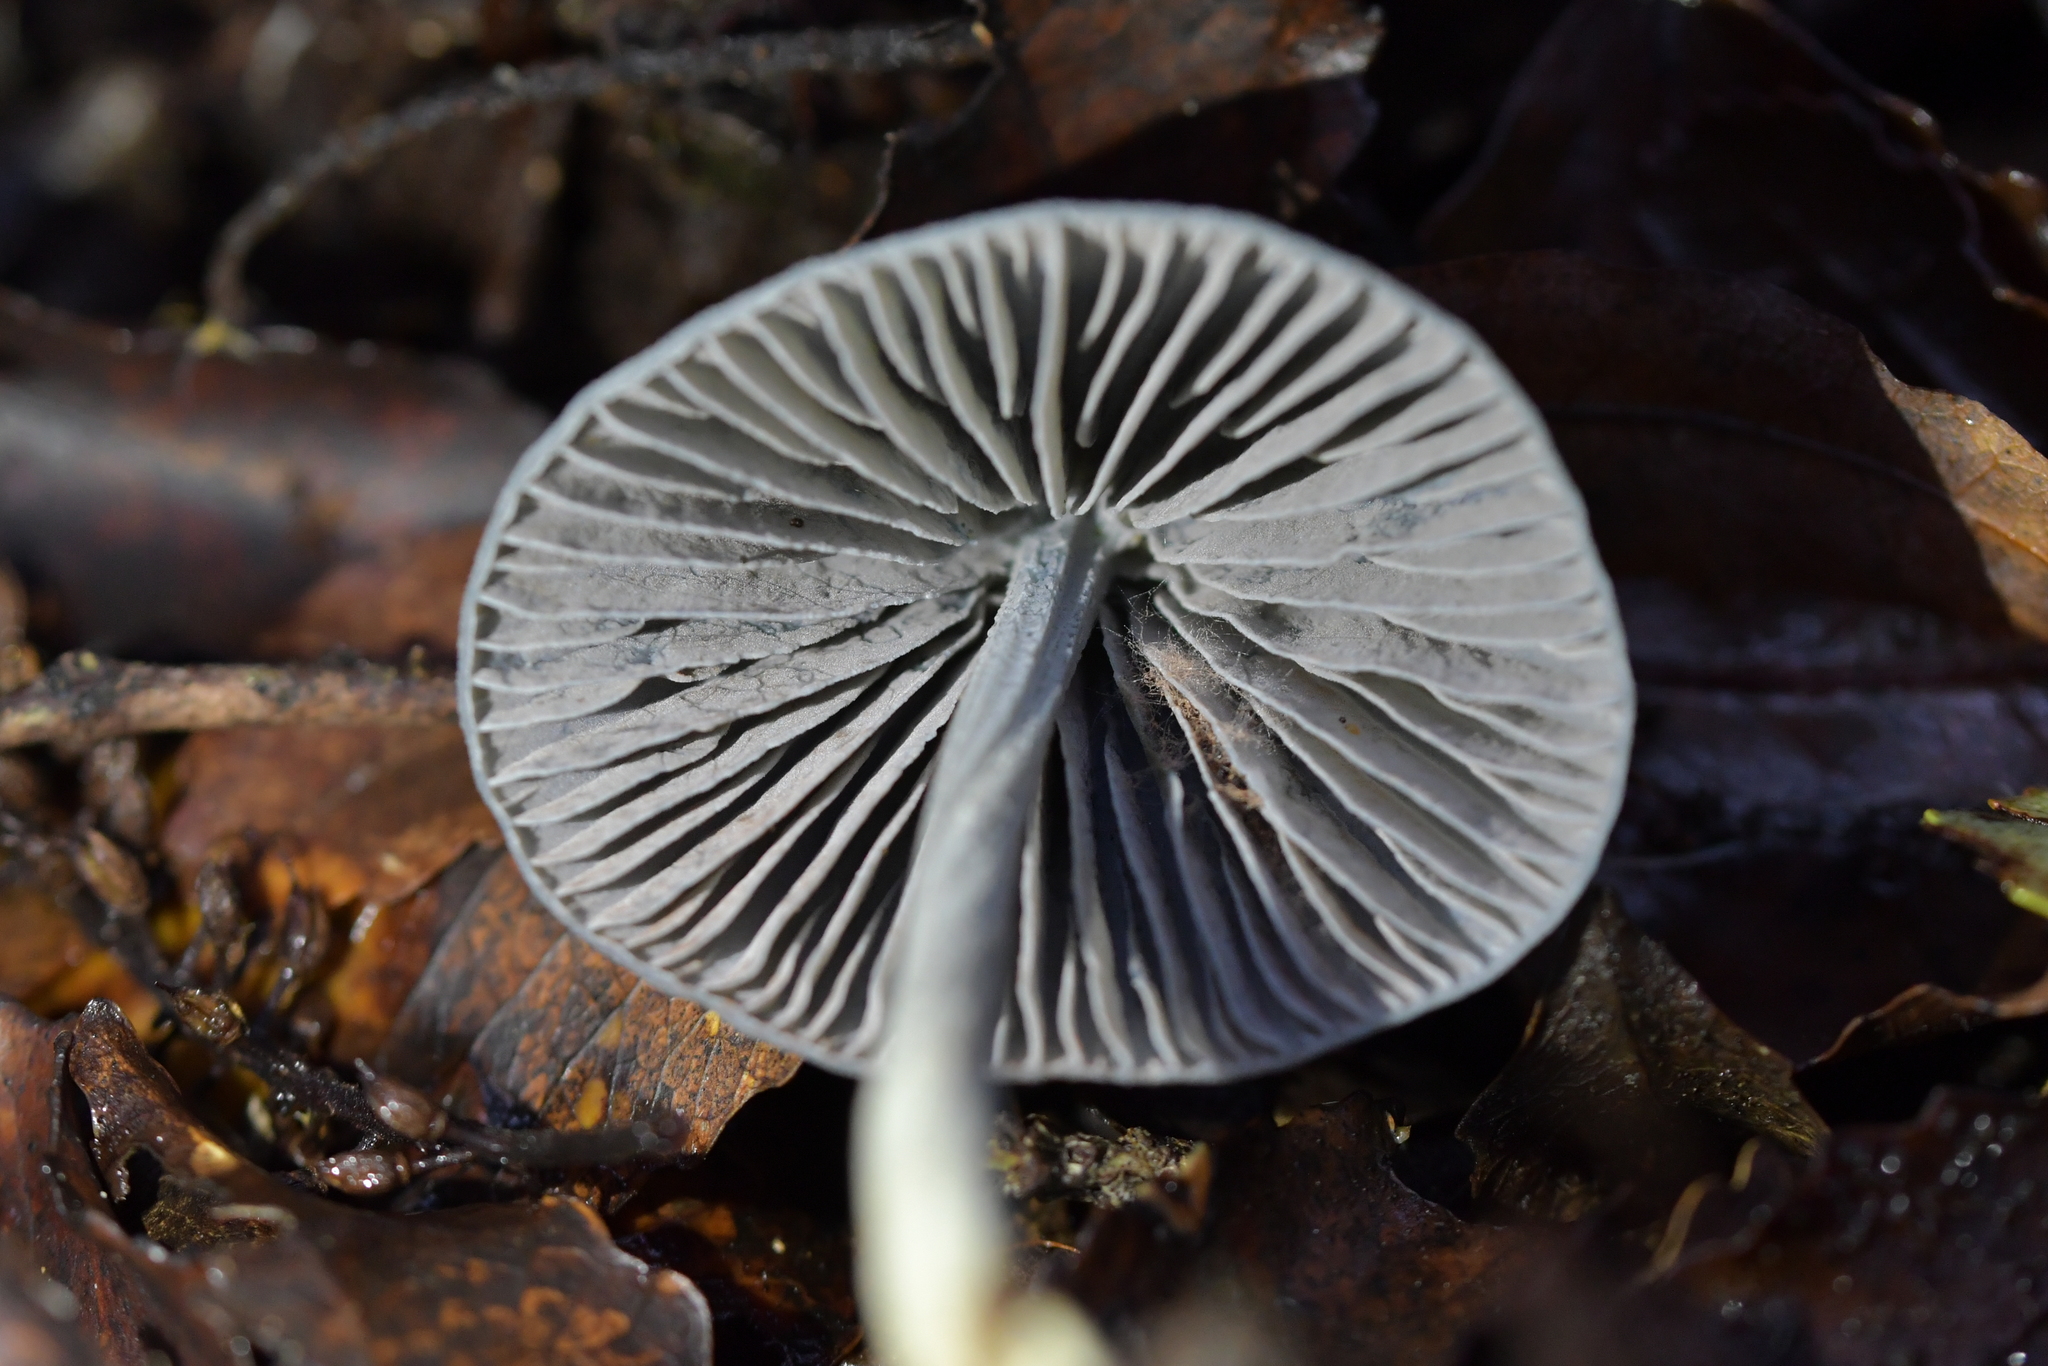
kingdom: Fungi
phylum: Basidiomycota
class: Agaricomycetes
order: Agaricales
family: Entolomataceae
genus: Entoloma
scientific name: Entoloma canoconicum
